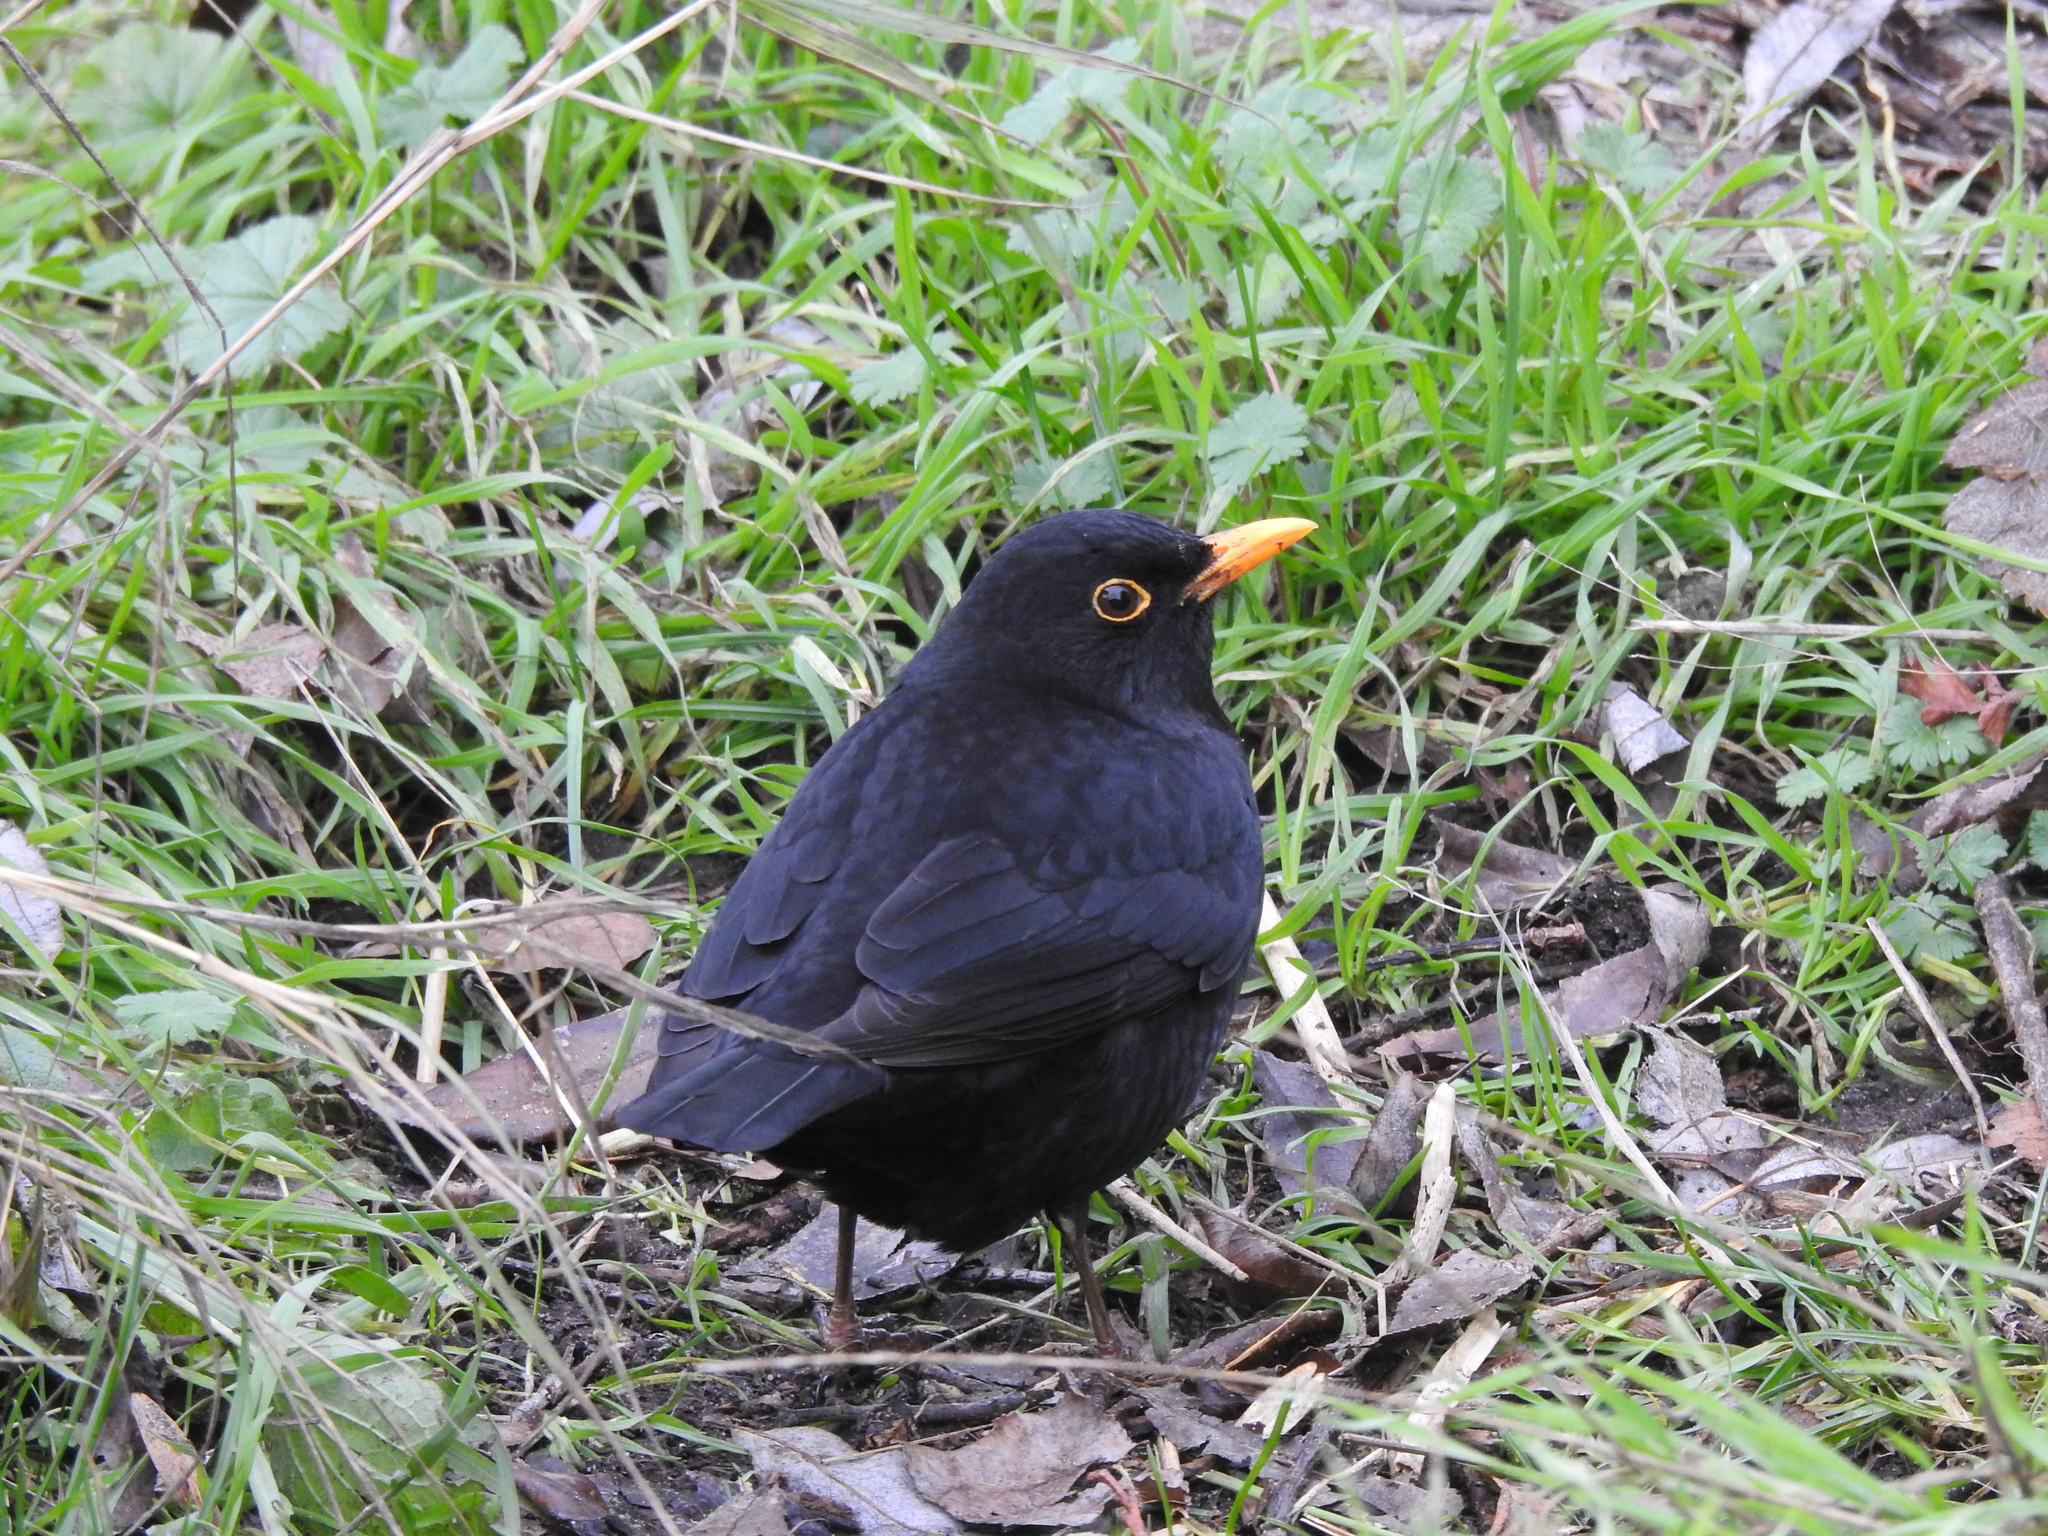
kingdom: Animalia
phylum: Chordata
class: Aves
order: Passeriformes
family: Turdidae
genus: Turdus
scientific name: Turdus merula
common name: Common blackbird
